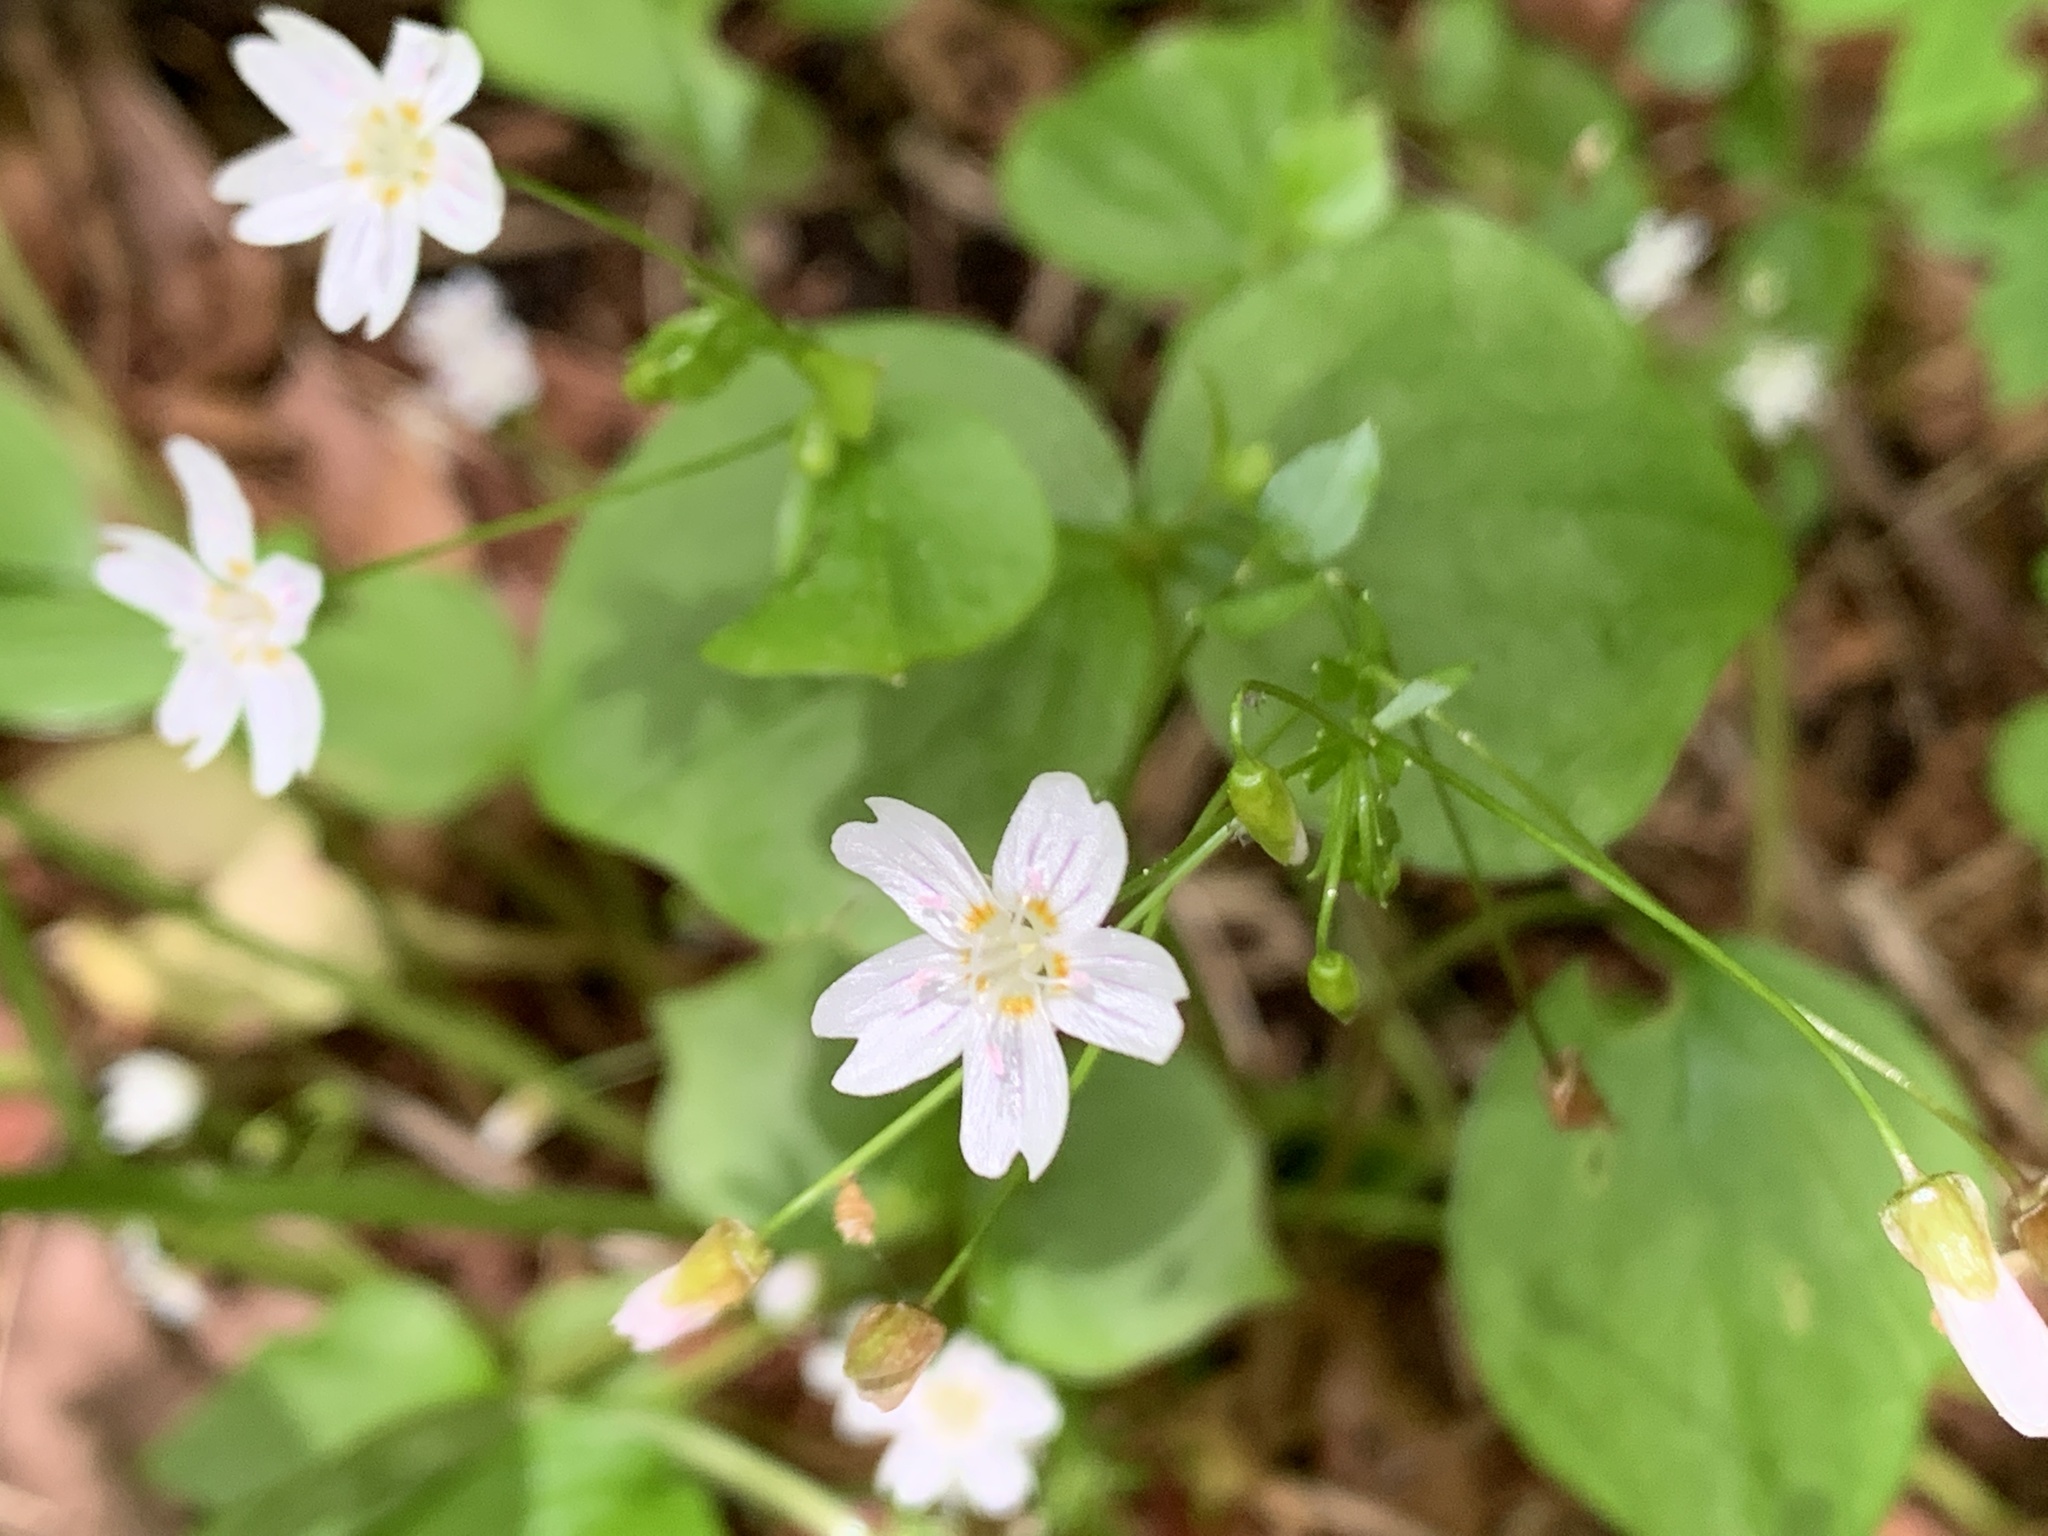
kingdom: Plantae
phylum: Tracheophyta
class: Magnoliopsida
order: Caryophyllales
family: Montiaceae
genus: Claytonia
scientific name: Claytonia sibirica
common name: Pink purslane
